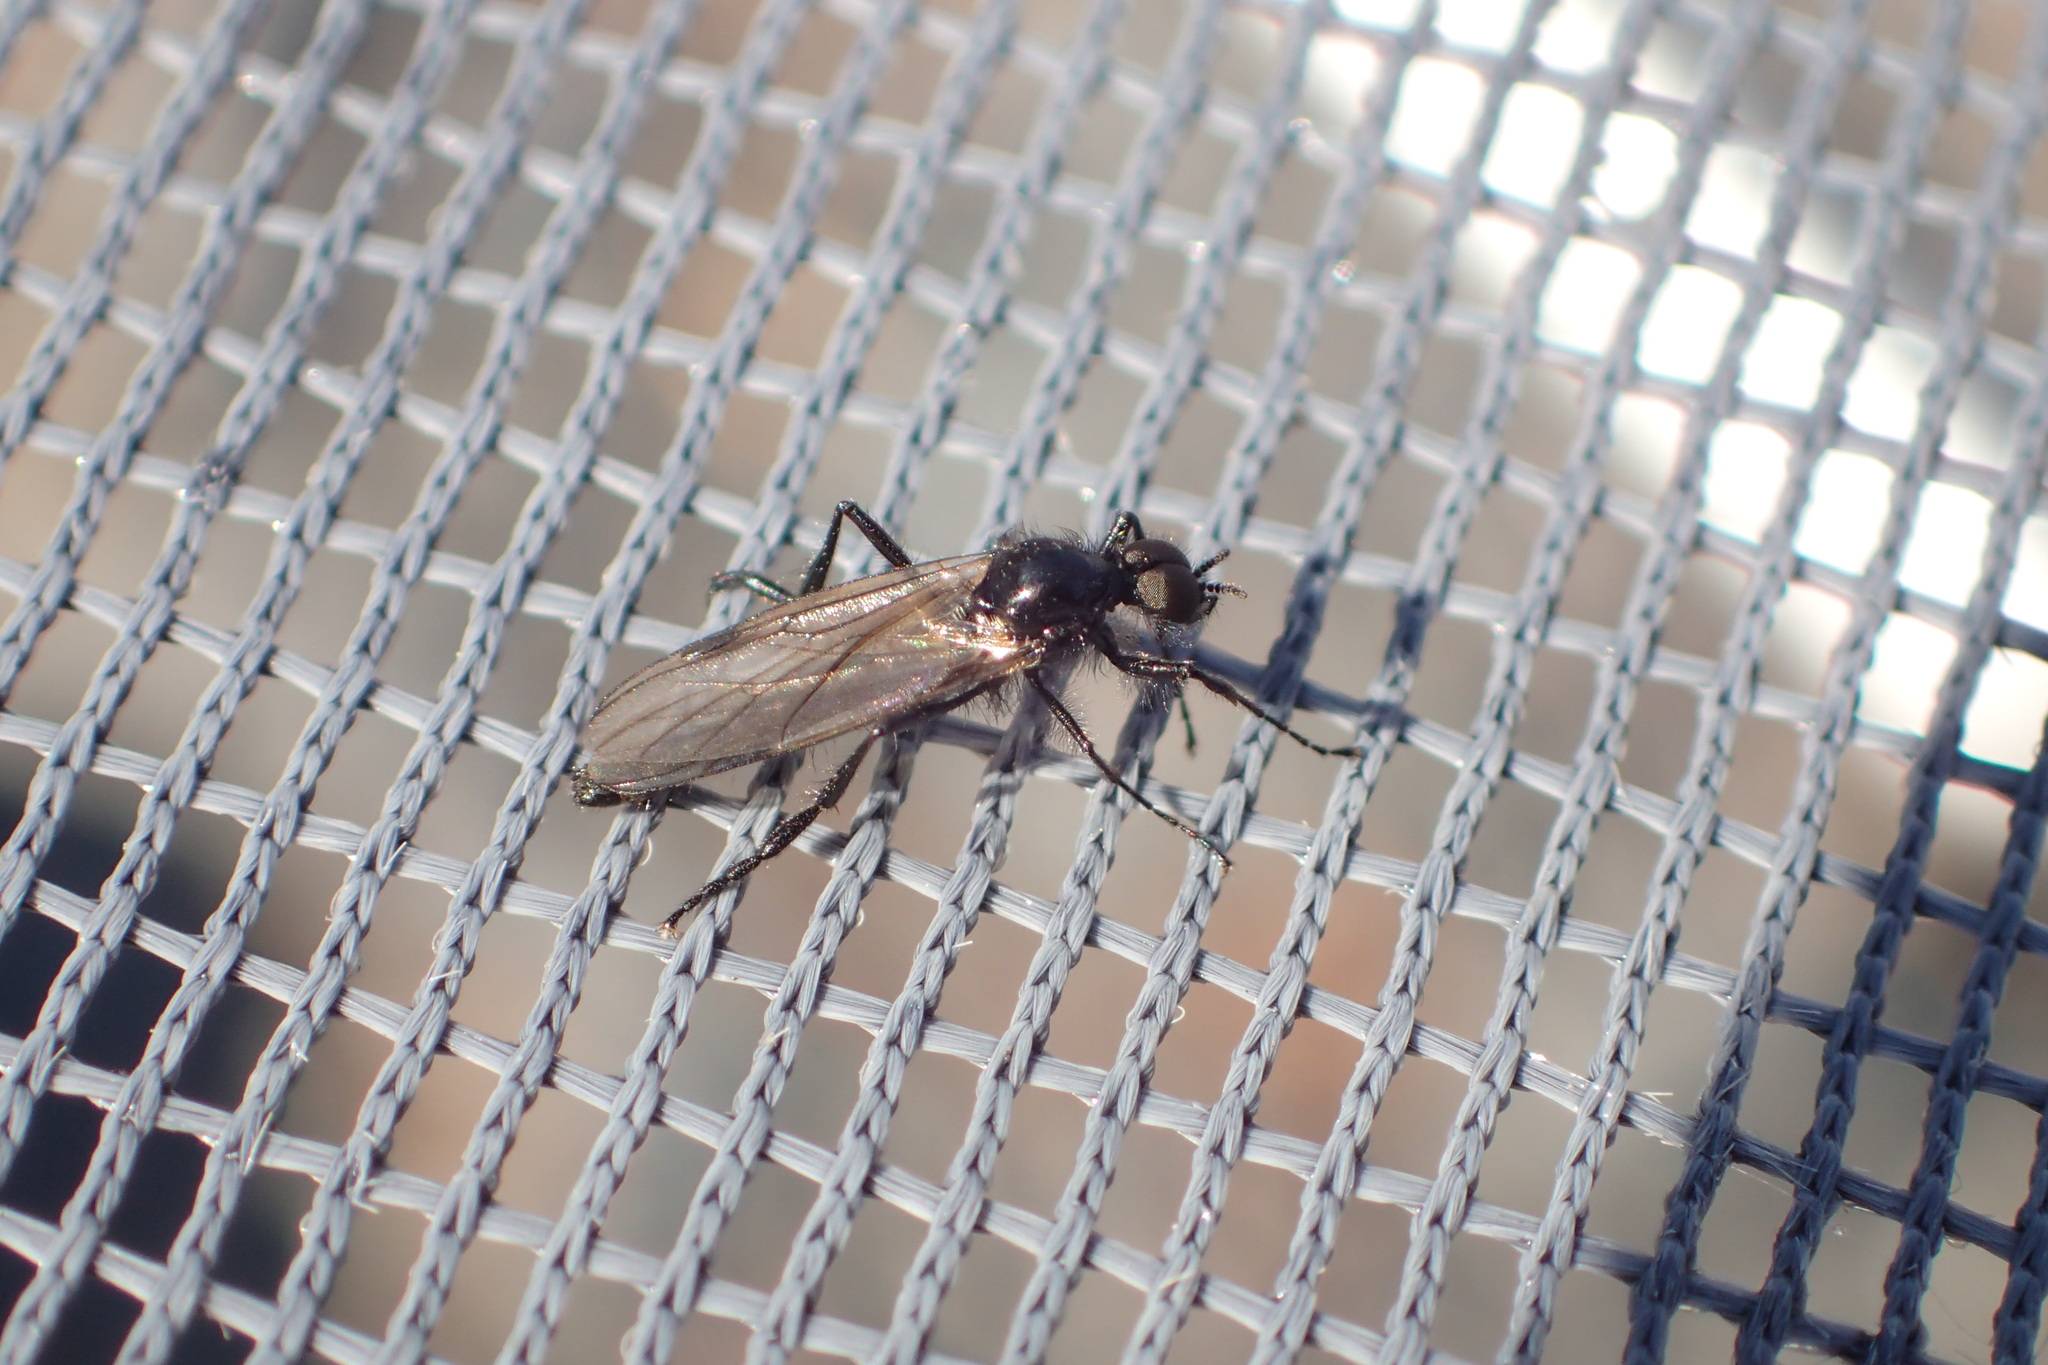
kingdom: Animalia
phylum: Arthropoda
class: Insecta
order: Diptera
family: Bibionidae
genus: Bibio
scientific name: Bibio slossonae
